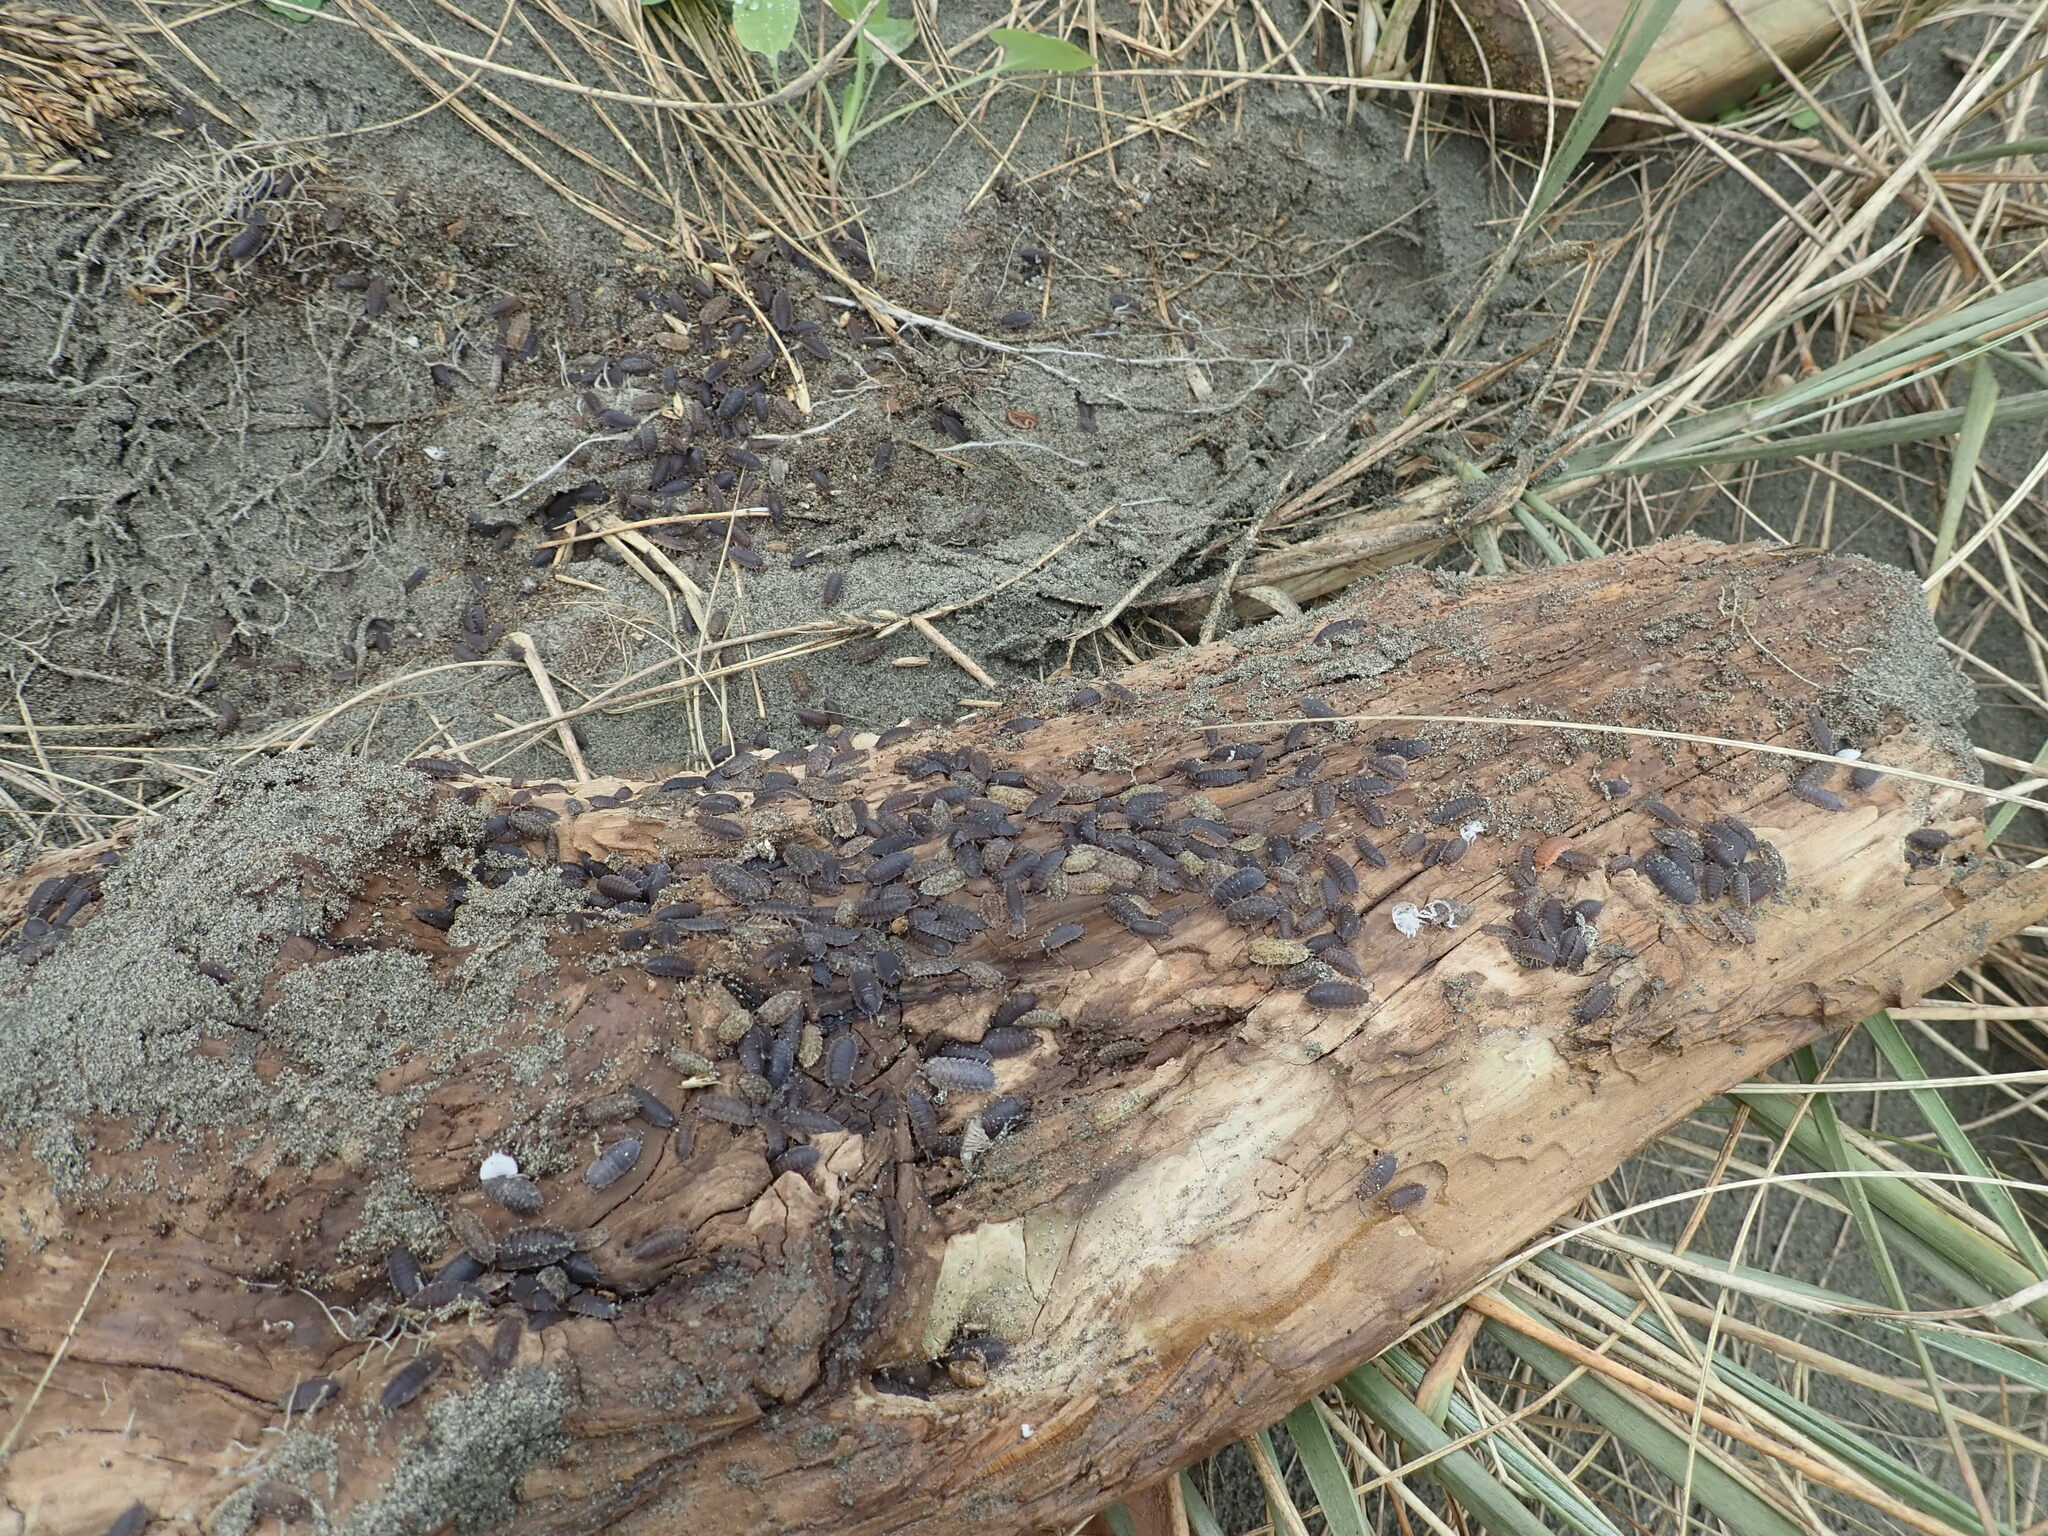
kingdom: Animalia
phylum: Arthropoda
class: Malacostraca
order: Isopoda
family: Porcellionidae
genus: Porcellio
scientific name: Porcellio scaber
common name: Common rough woodlouse
